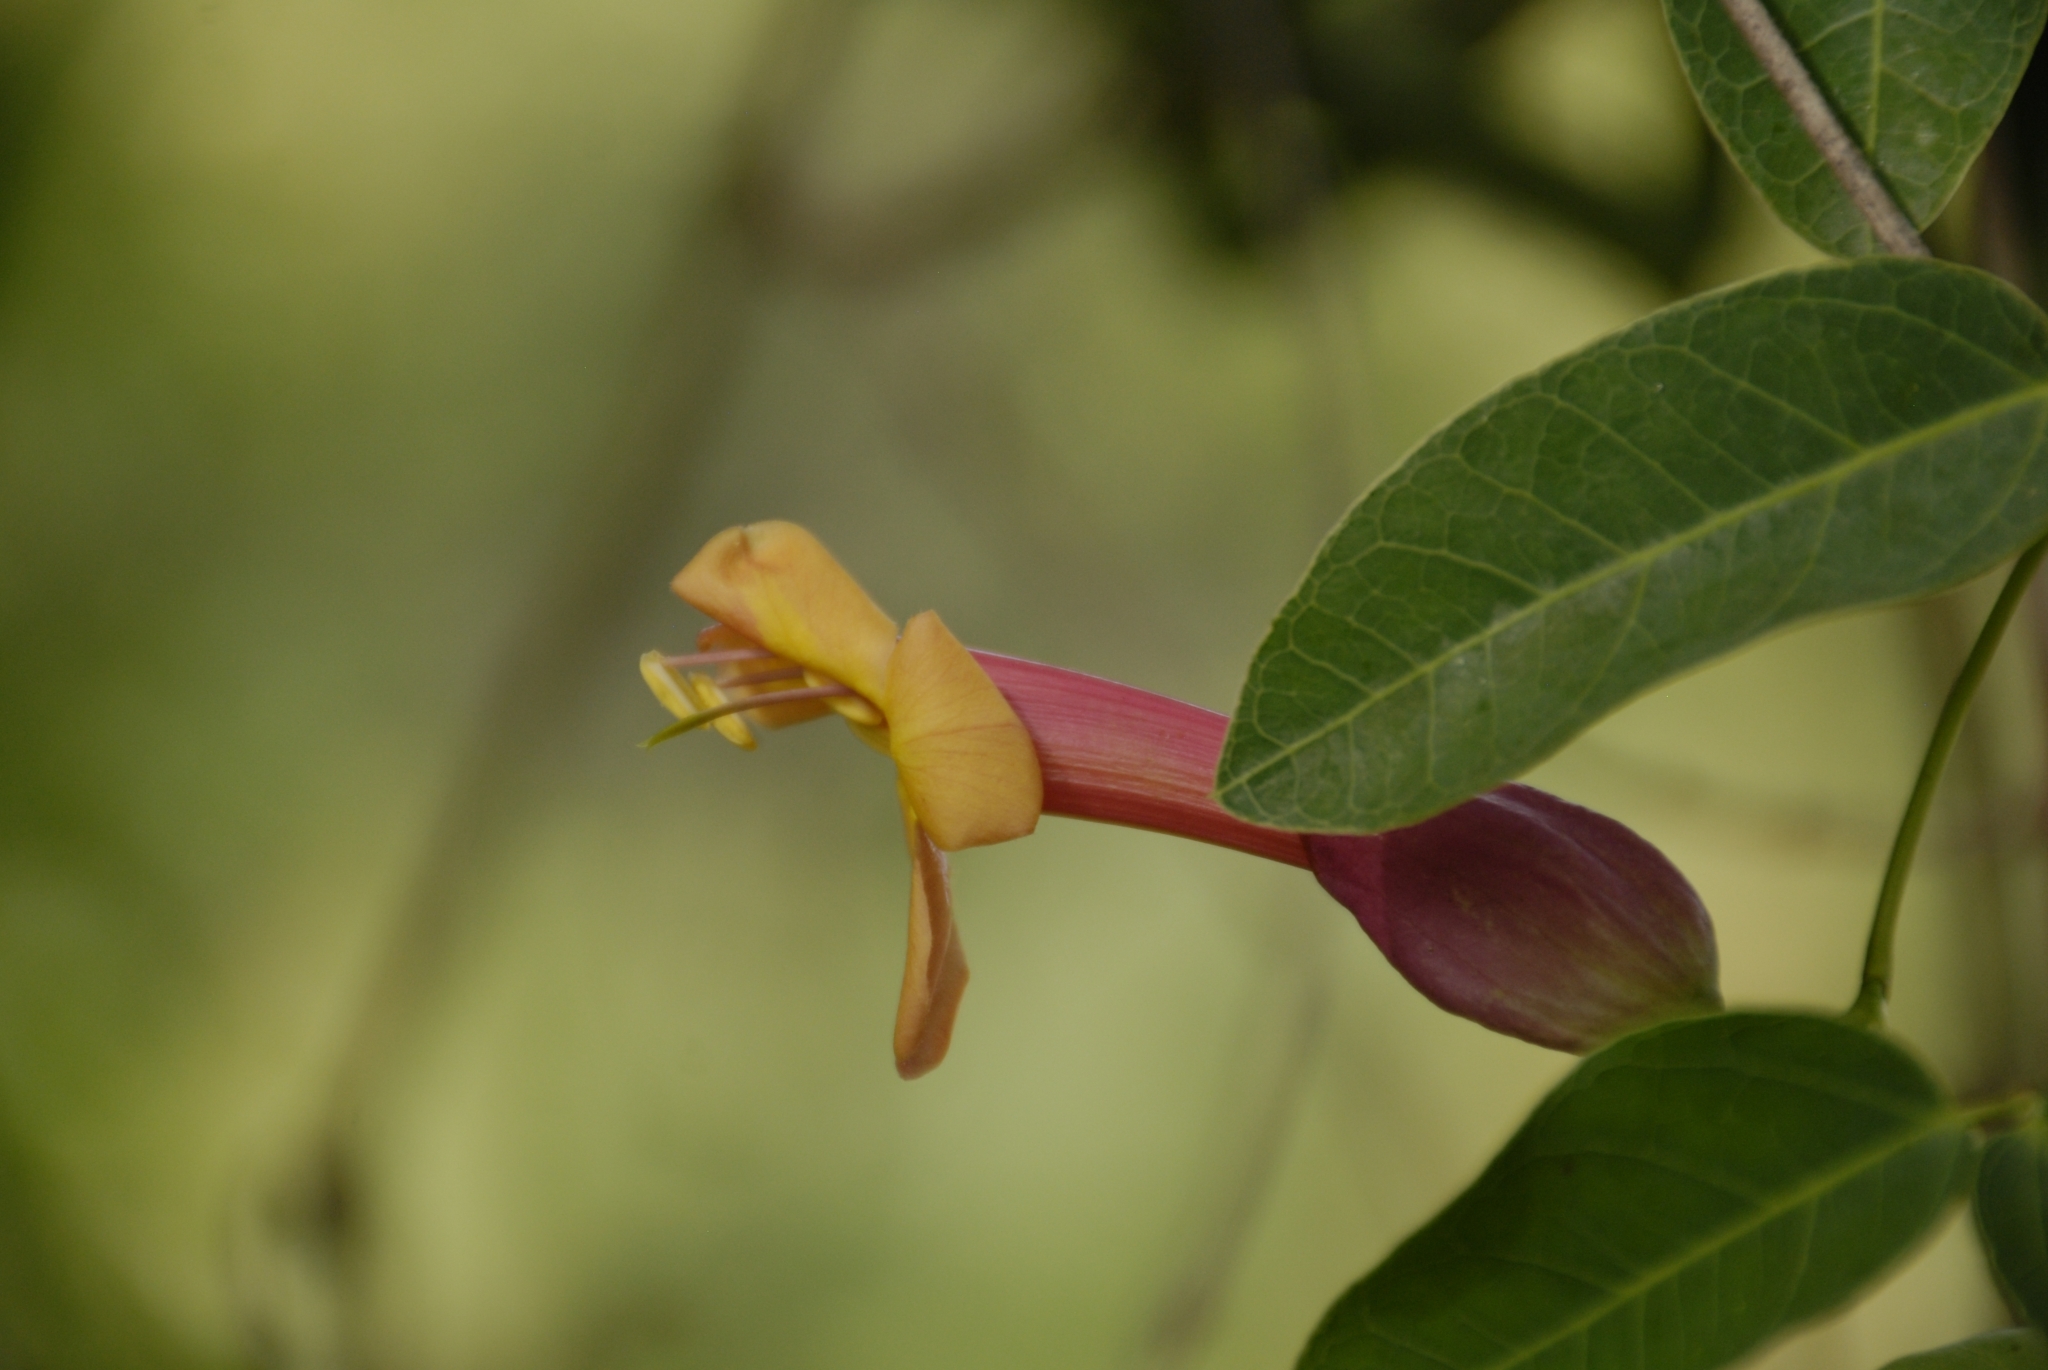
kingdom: Plantae
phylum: Tracheophyta
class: Magnoliopsida
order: Lamiales
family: Bignoniaceae
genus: Dolichandra
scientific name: Dolichandra cynanchoides
